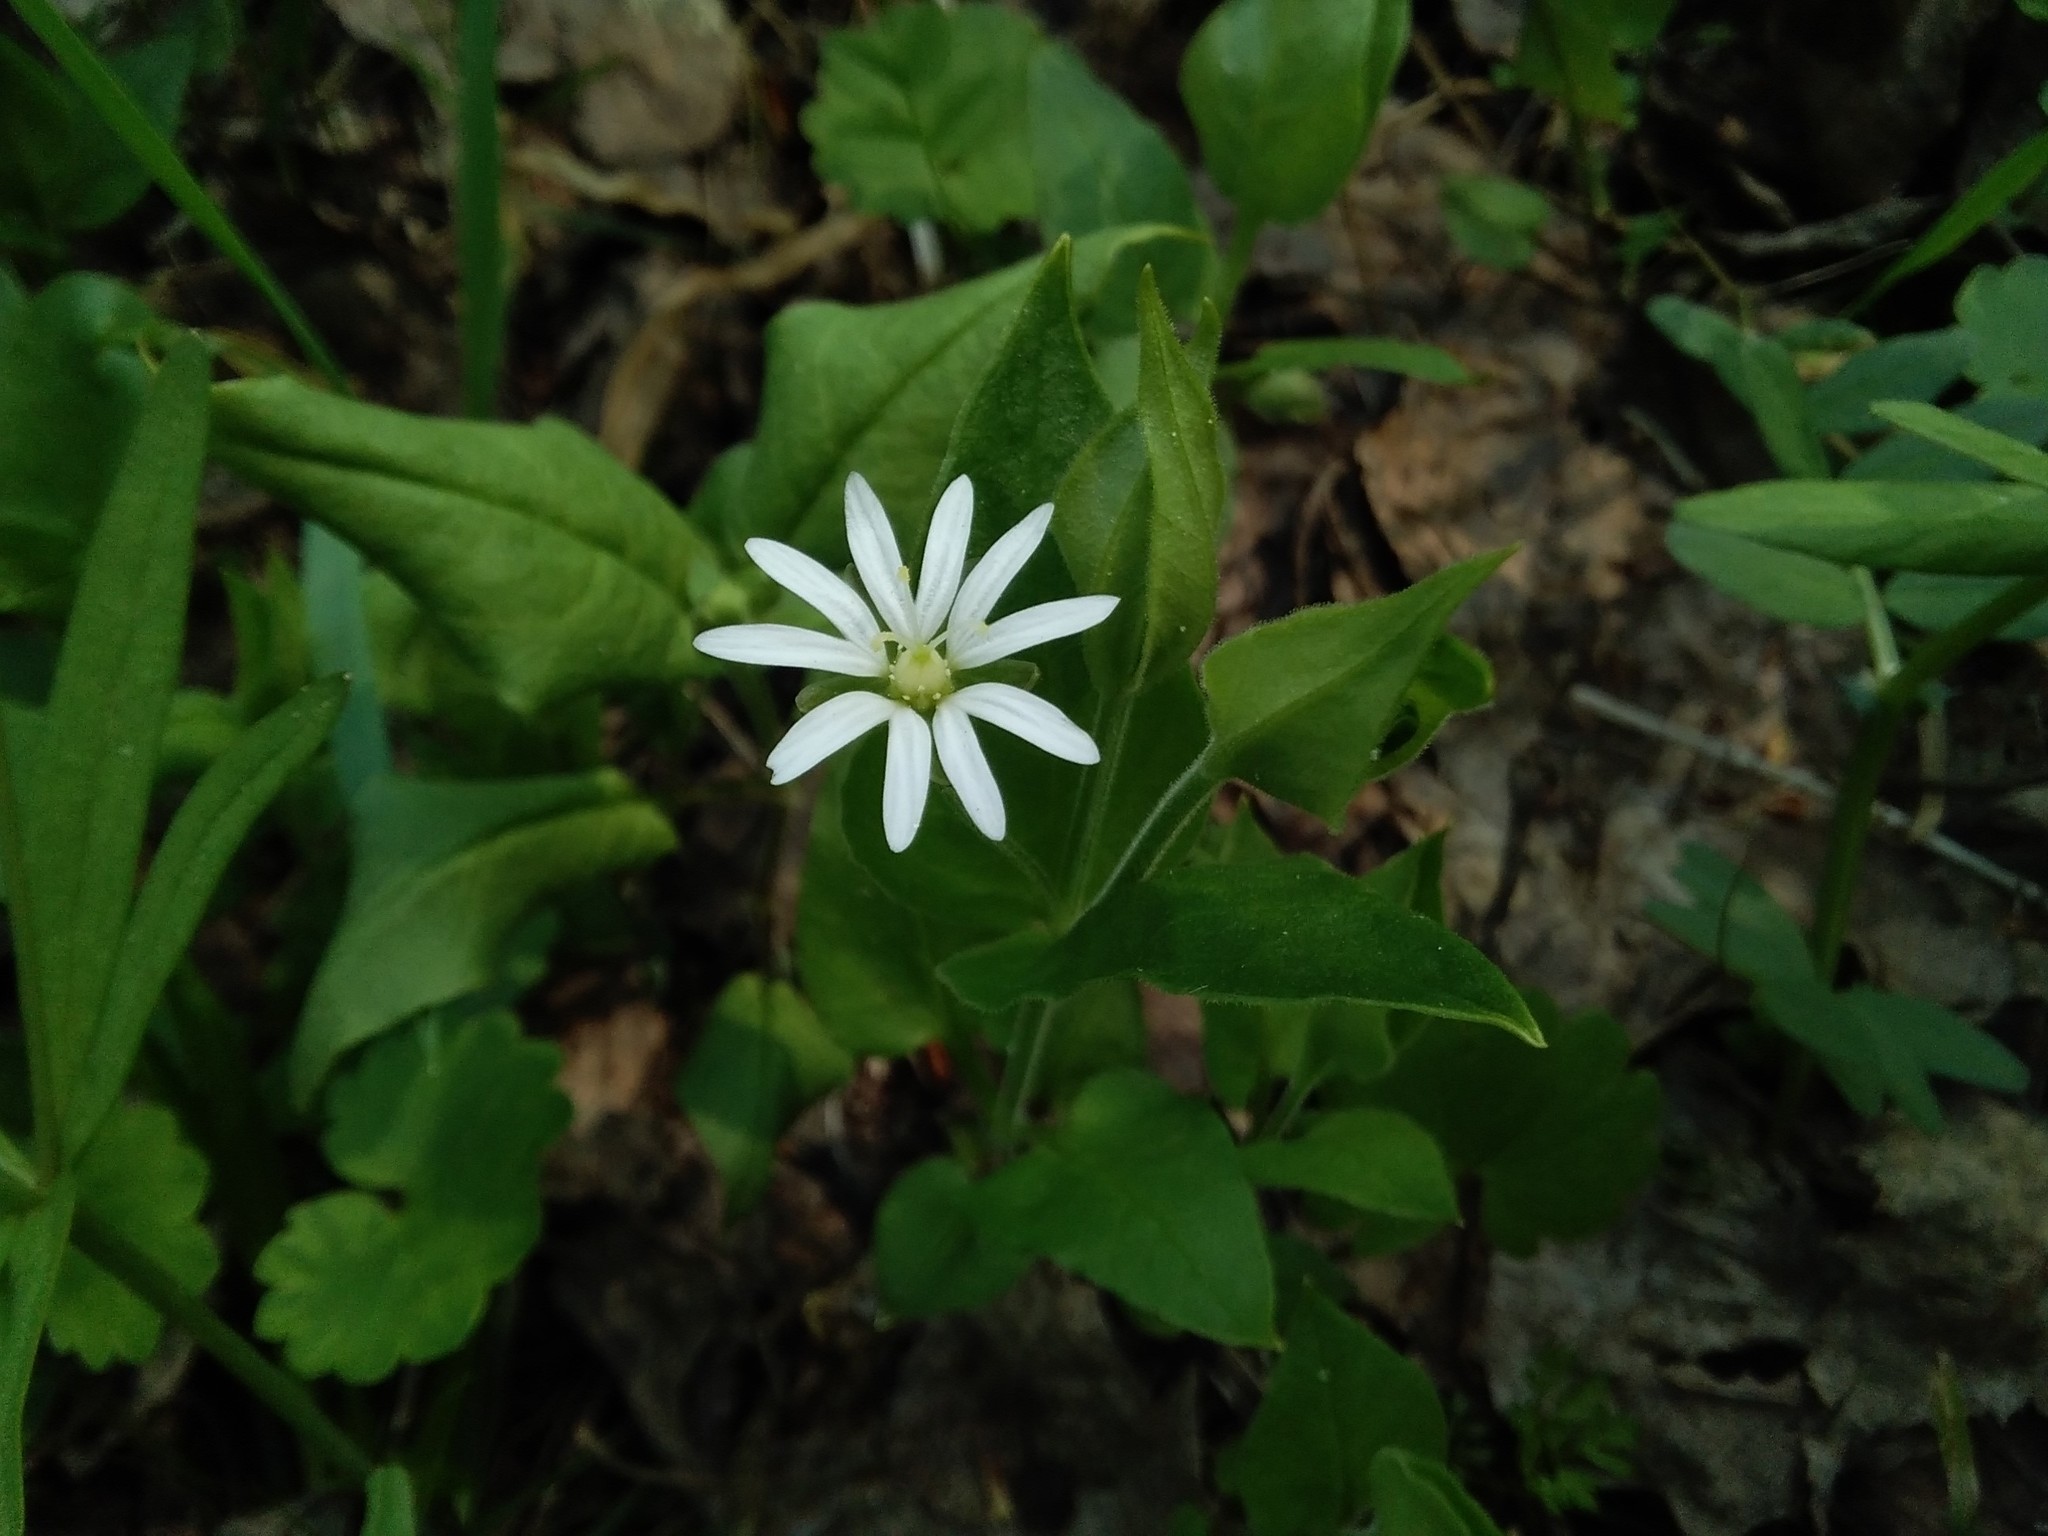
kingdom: Plantae
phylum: Tracheophyta
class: Magnoliopsida
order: Caryophyllales
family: Caryophyllaceae
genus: Stellaria
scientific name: Stellaria bungeana
